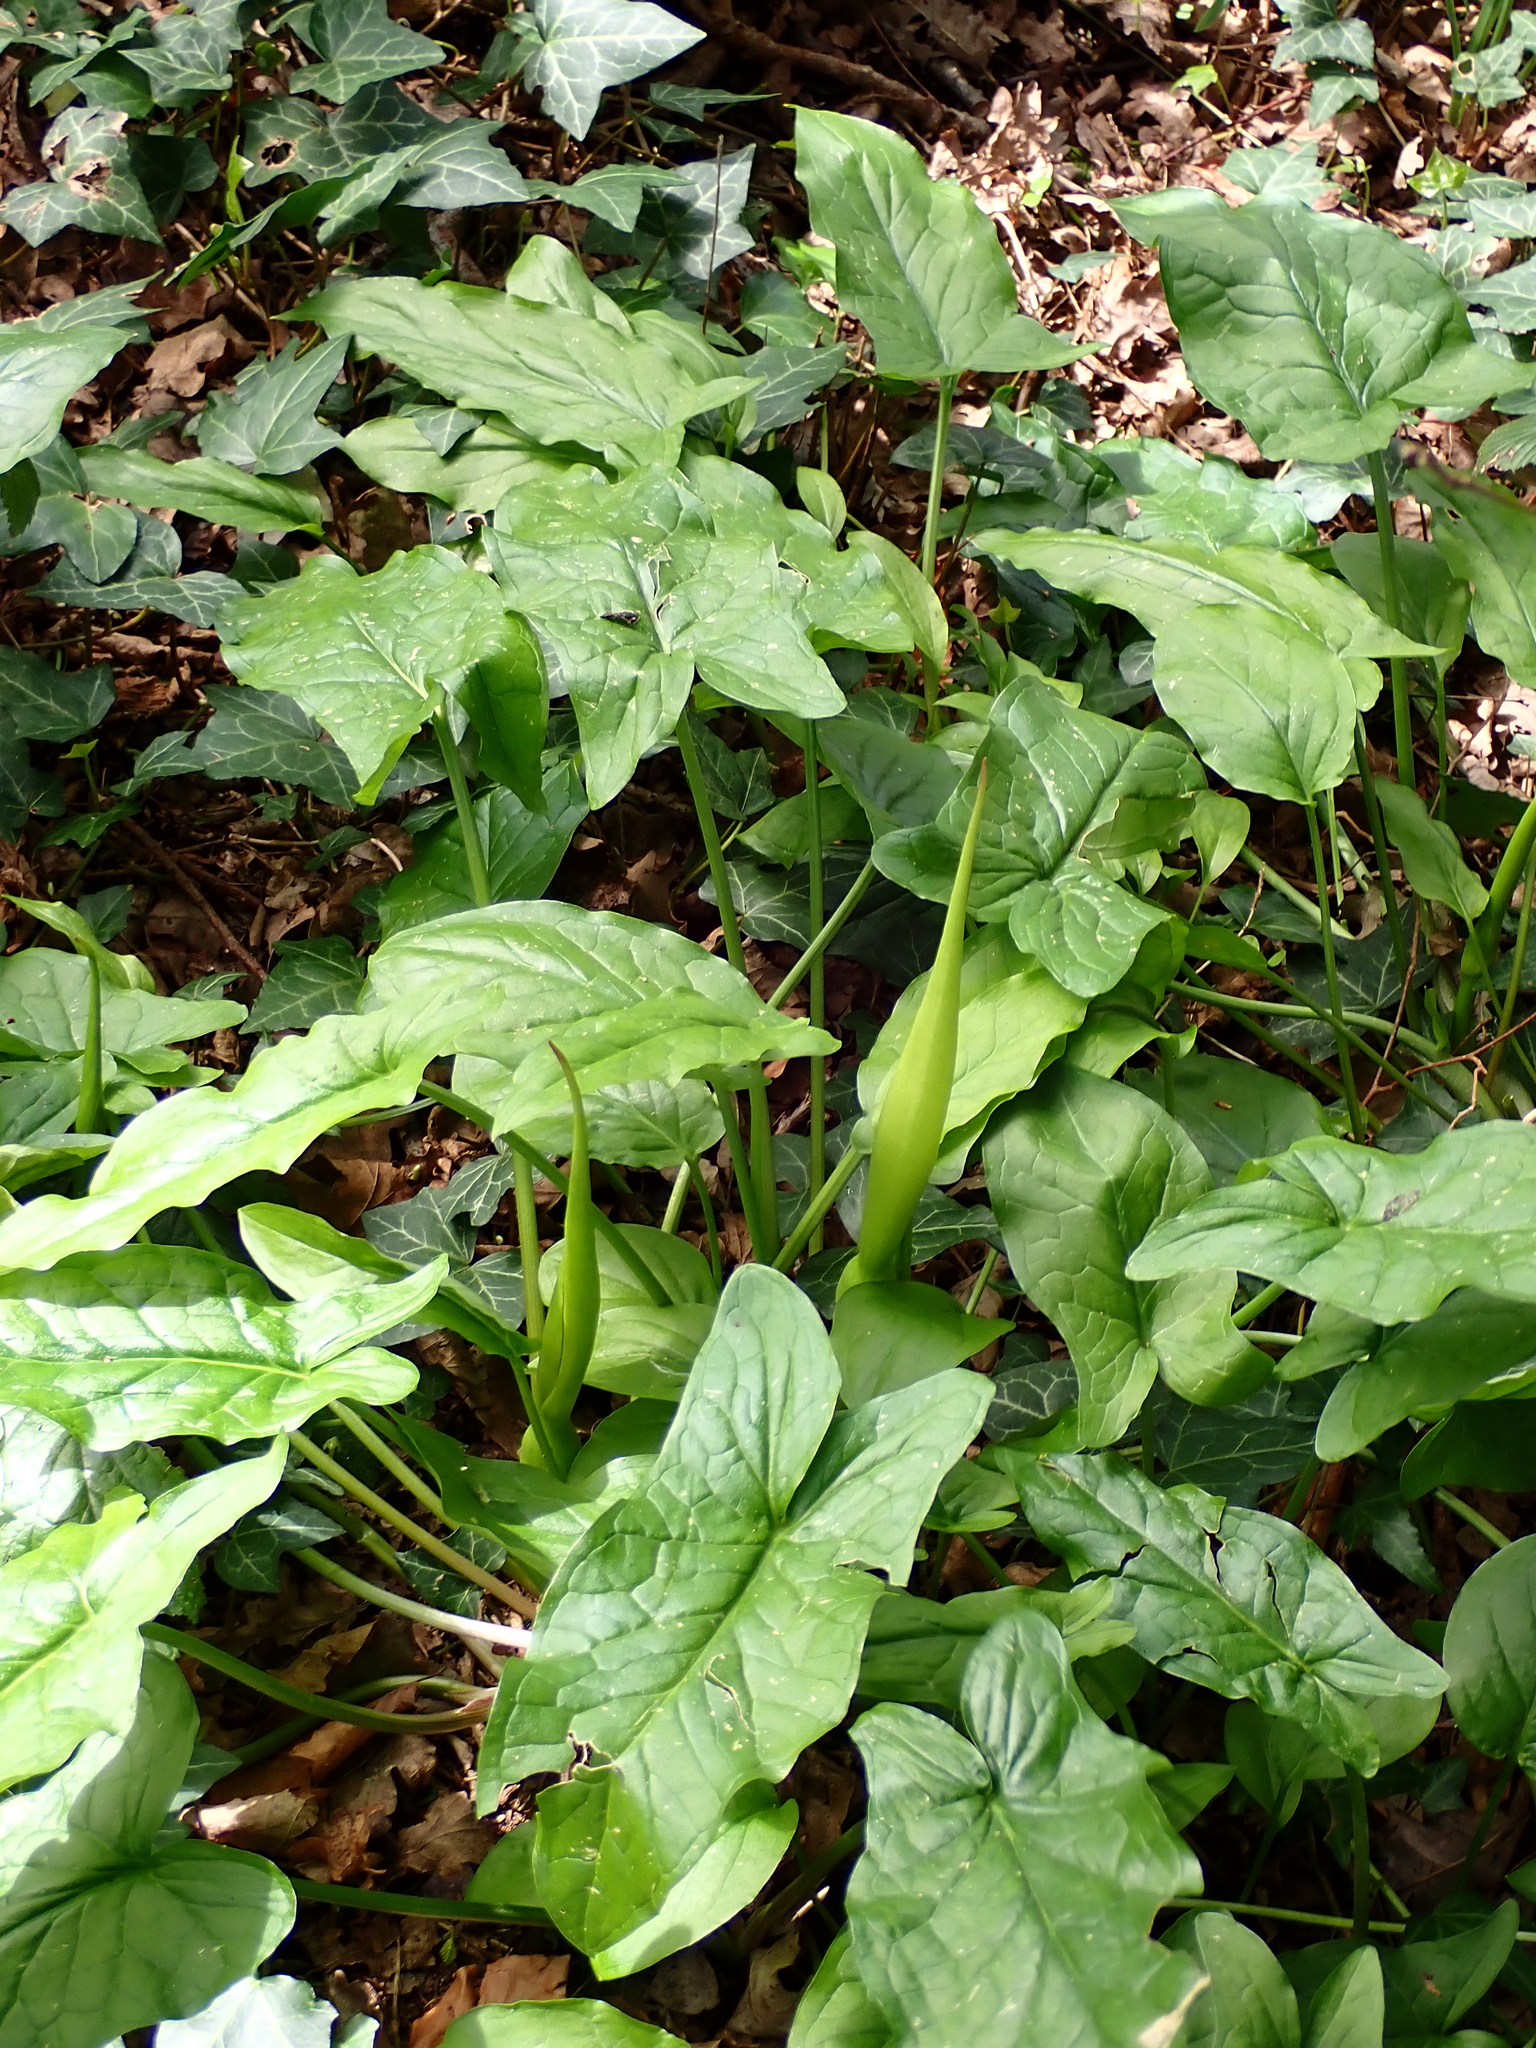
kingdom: Plantae
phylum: Tracheophyta
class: Liliopsida
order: Alismatales
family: Araceae
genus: Arum
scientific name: Arum maculatum
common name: Lords-and-ladies
